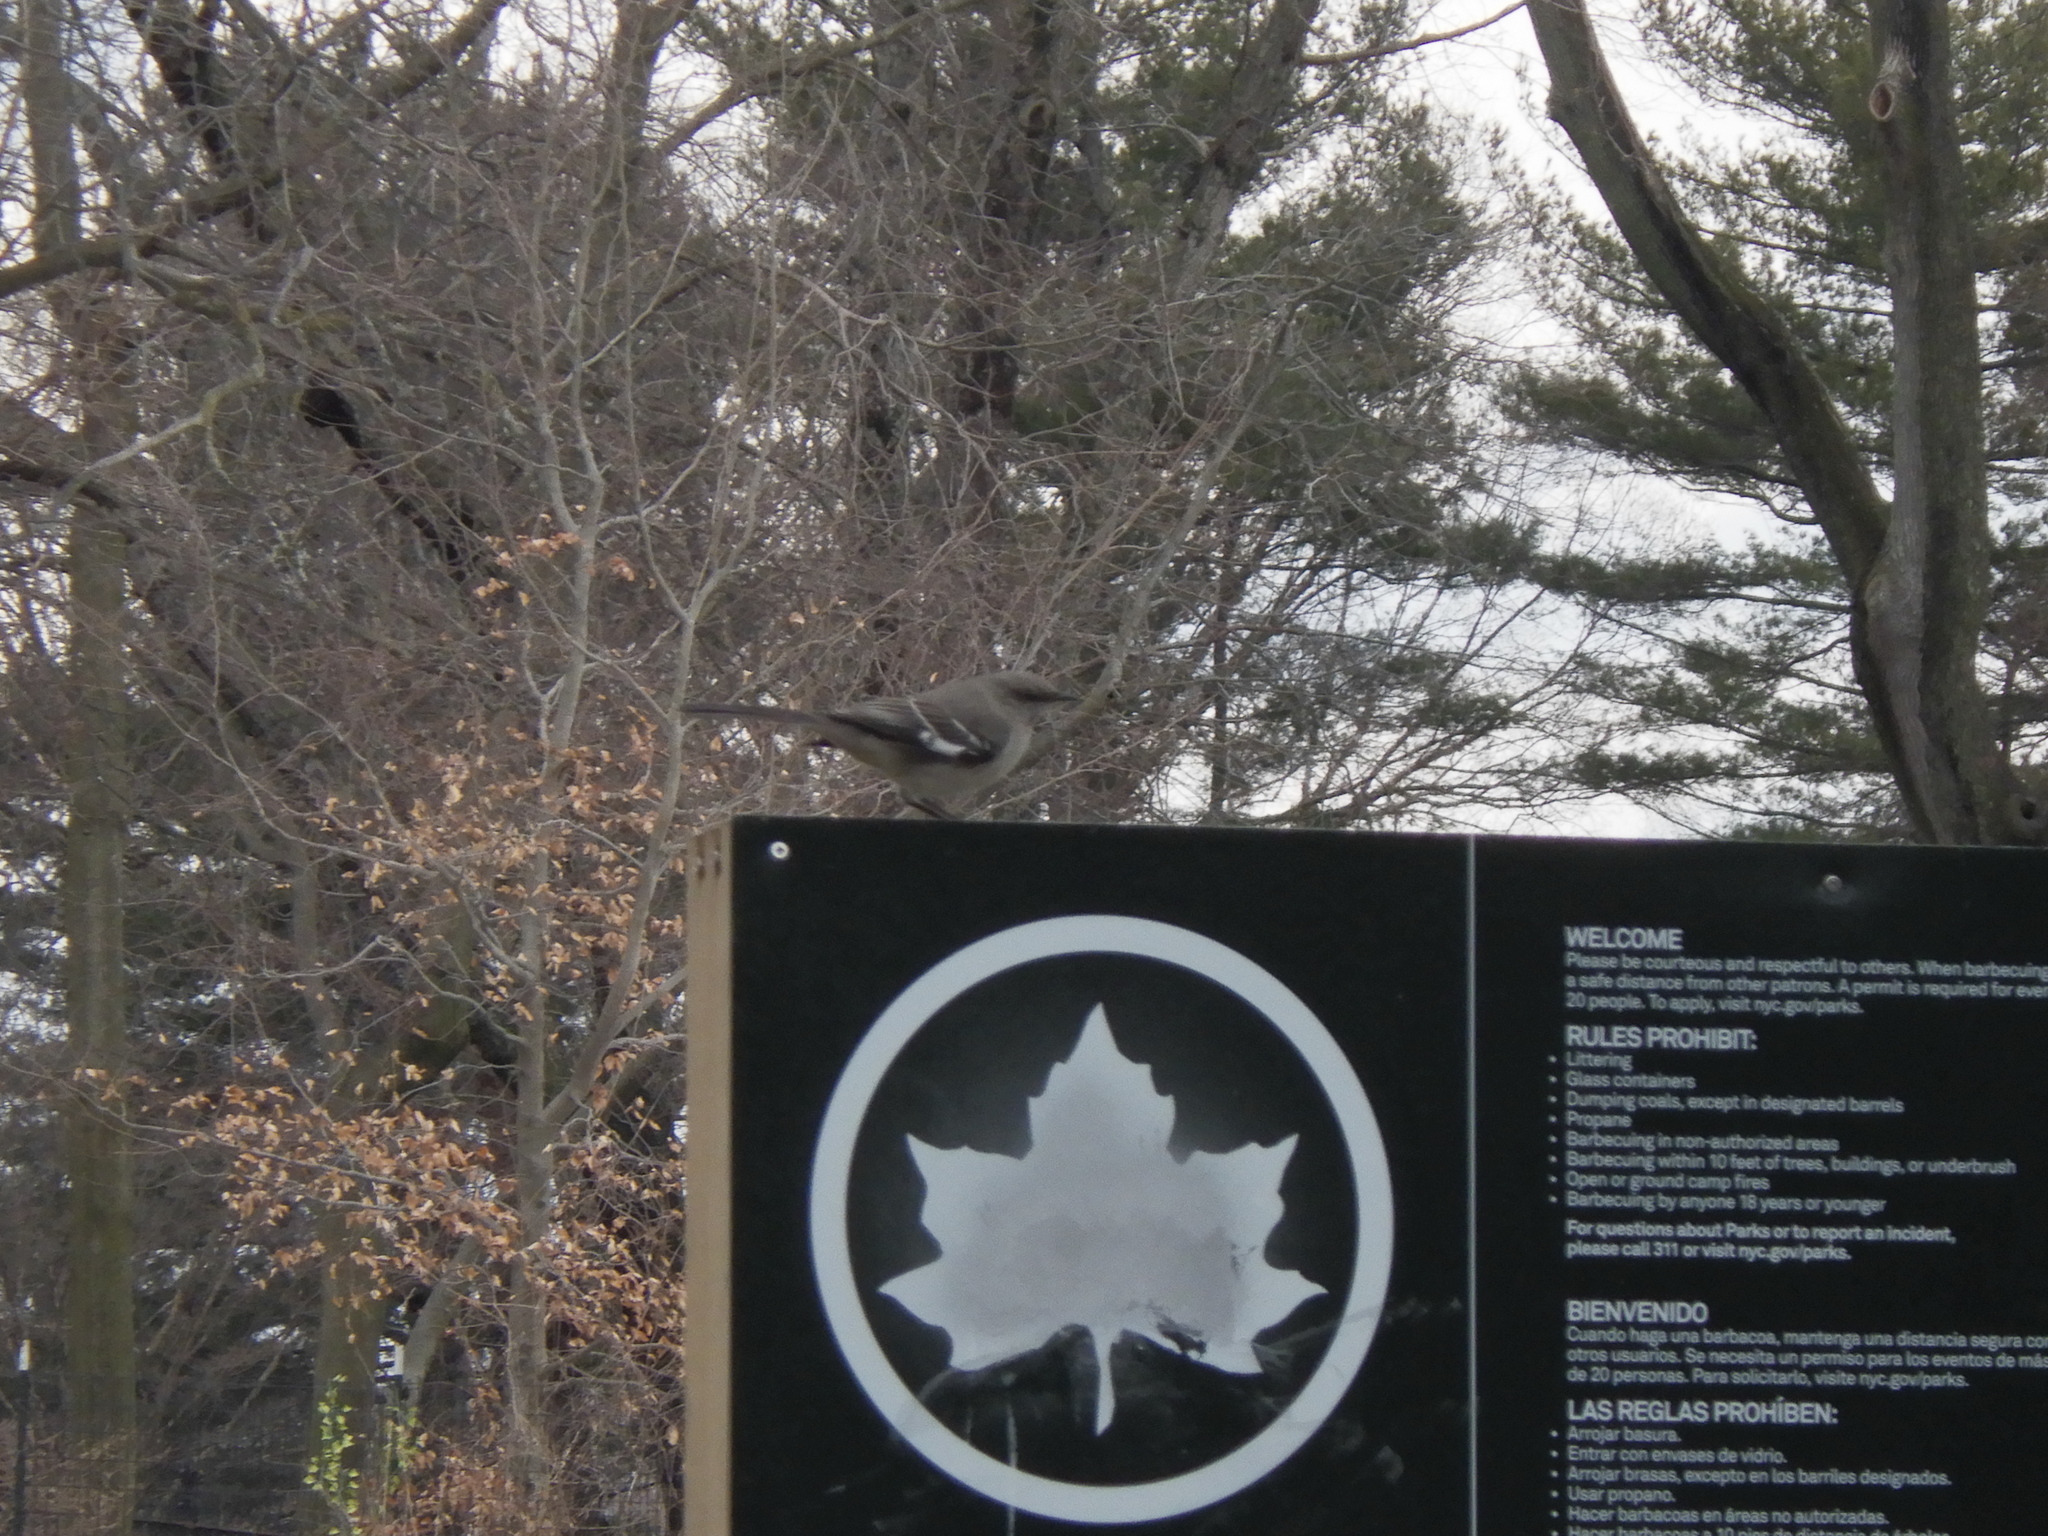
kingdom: Animalia
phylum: Chordata
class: Aves
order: Passeriformes
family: Mimidae
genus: Mimus
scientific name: Mimus polyglottos
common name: Northern mockingbird
